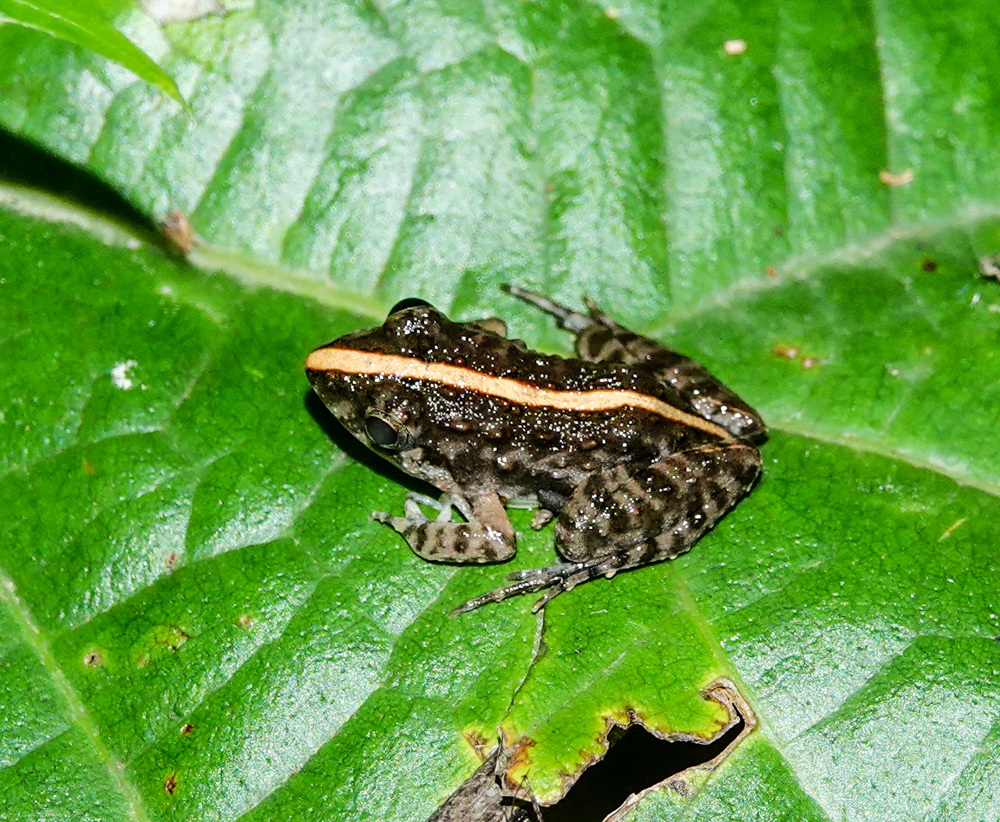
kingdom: Animalia
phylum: Chordata
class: Amphibia
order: Anura
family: Dicroglossidae
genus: Minervarya
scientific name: Minervarya pierrei
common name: Pierre's cricket frog
